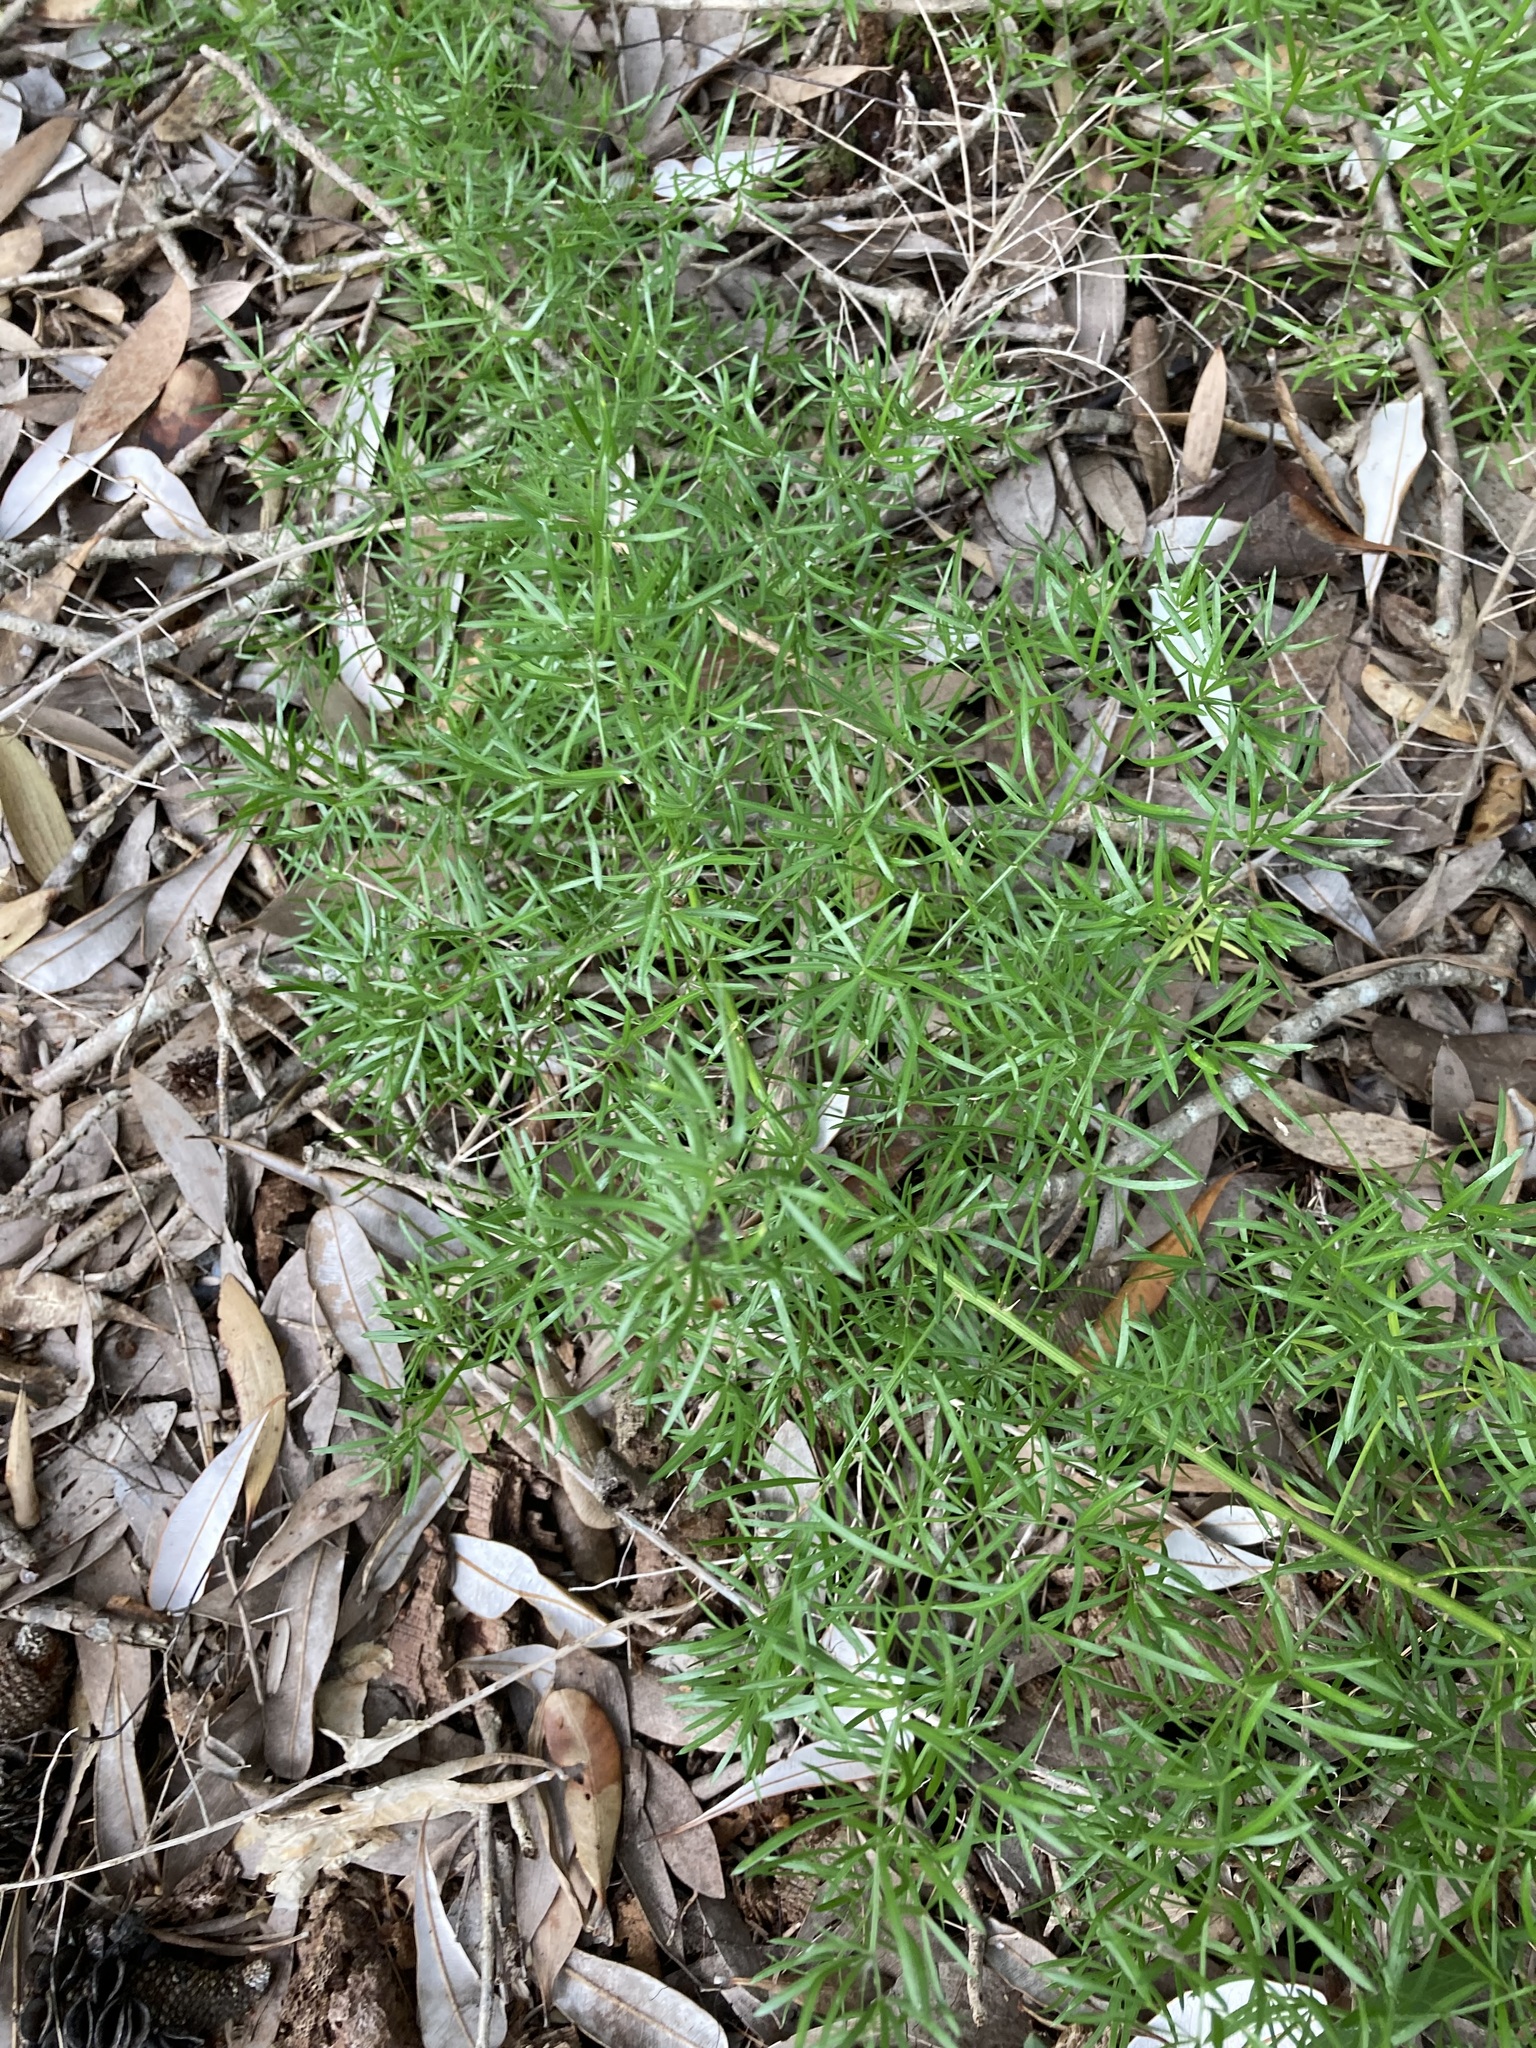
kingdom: Plantae
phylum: Tracheophyta
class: Liliopsida
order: Asparagales
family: Asparagaceae
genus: Asparagus
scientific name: Asparagus aethiopicus
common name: Sprenger's asparagus fern
